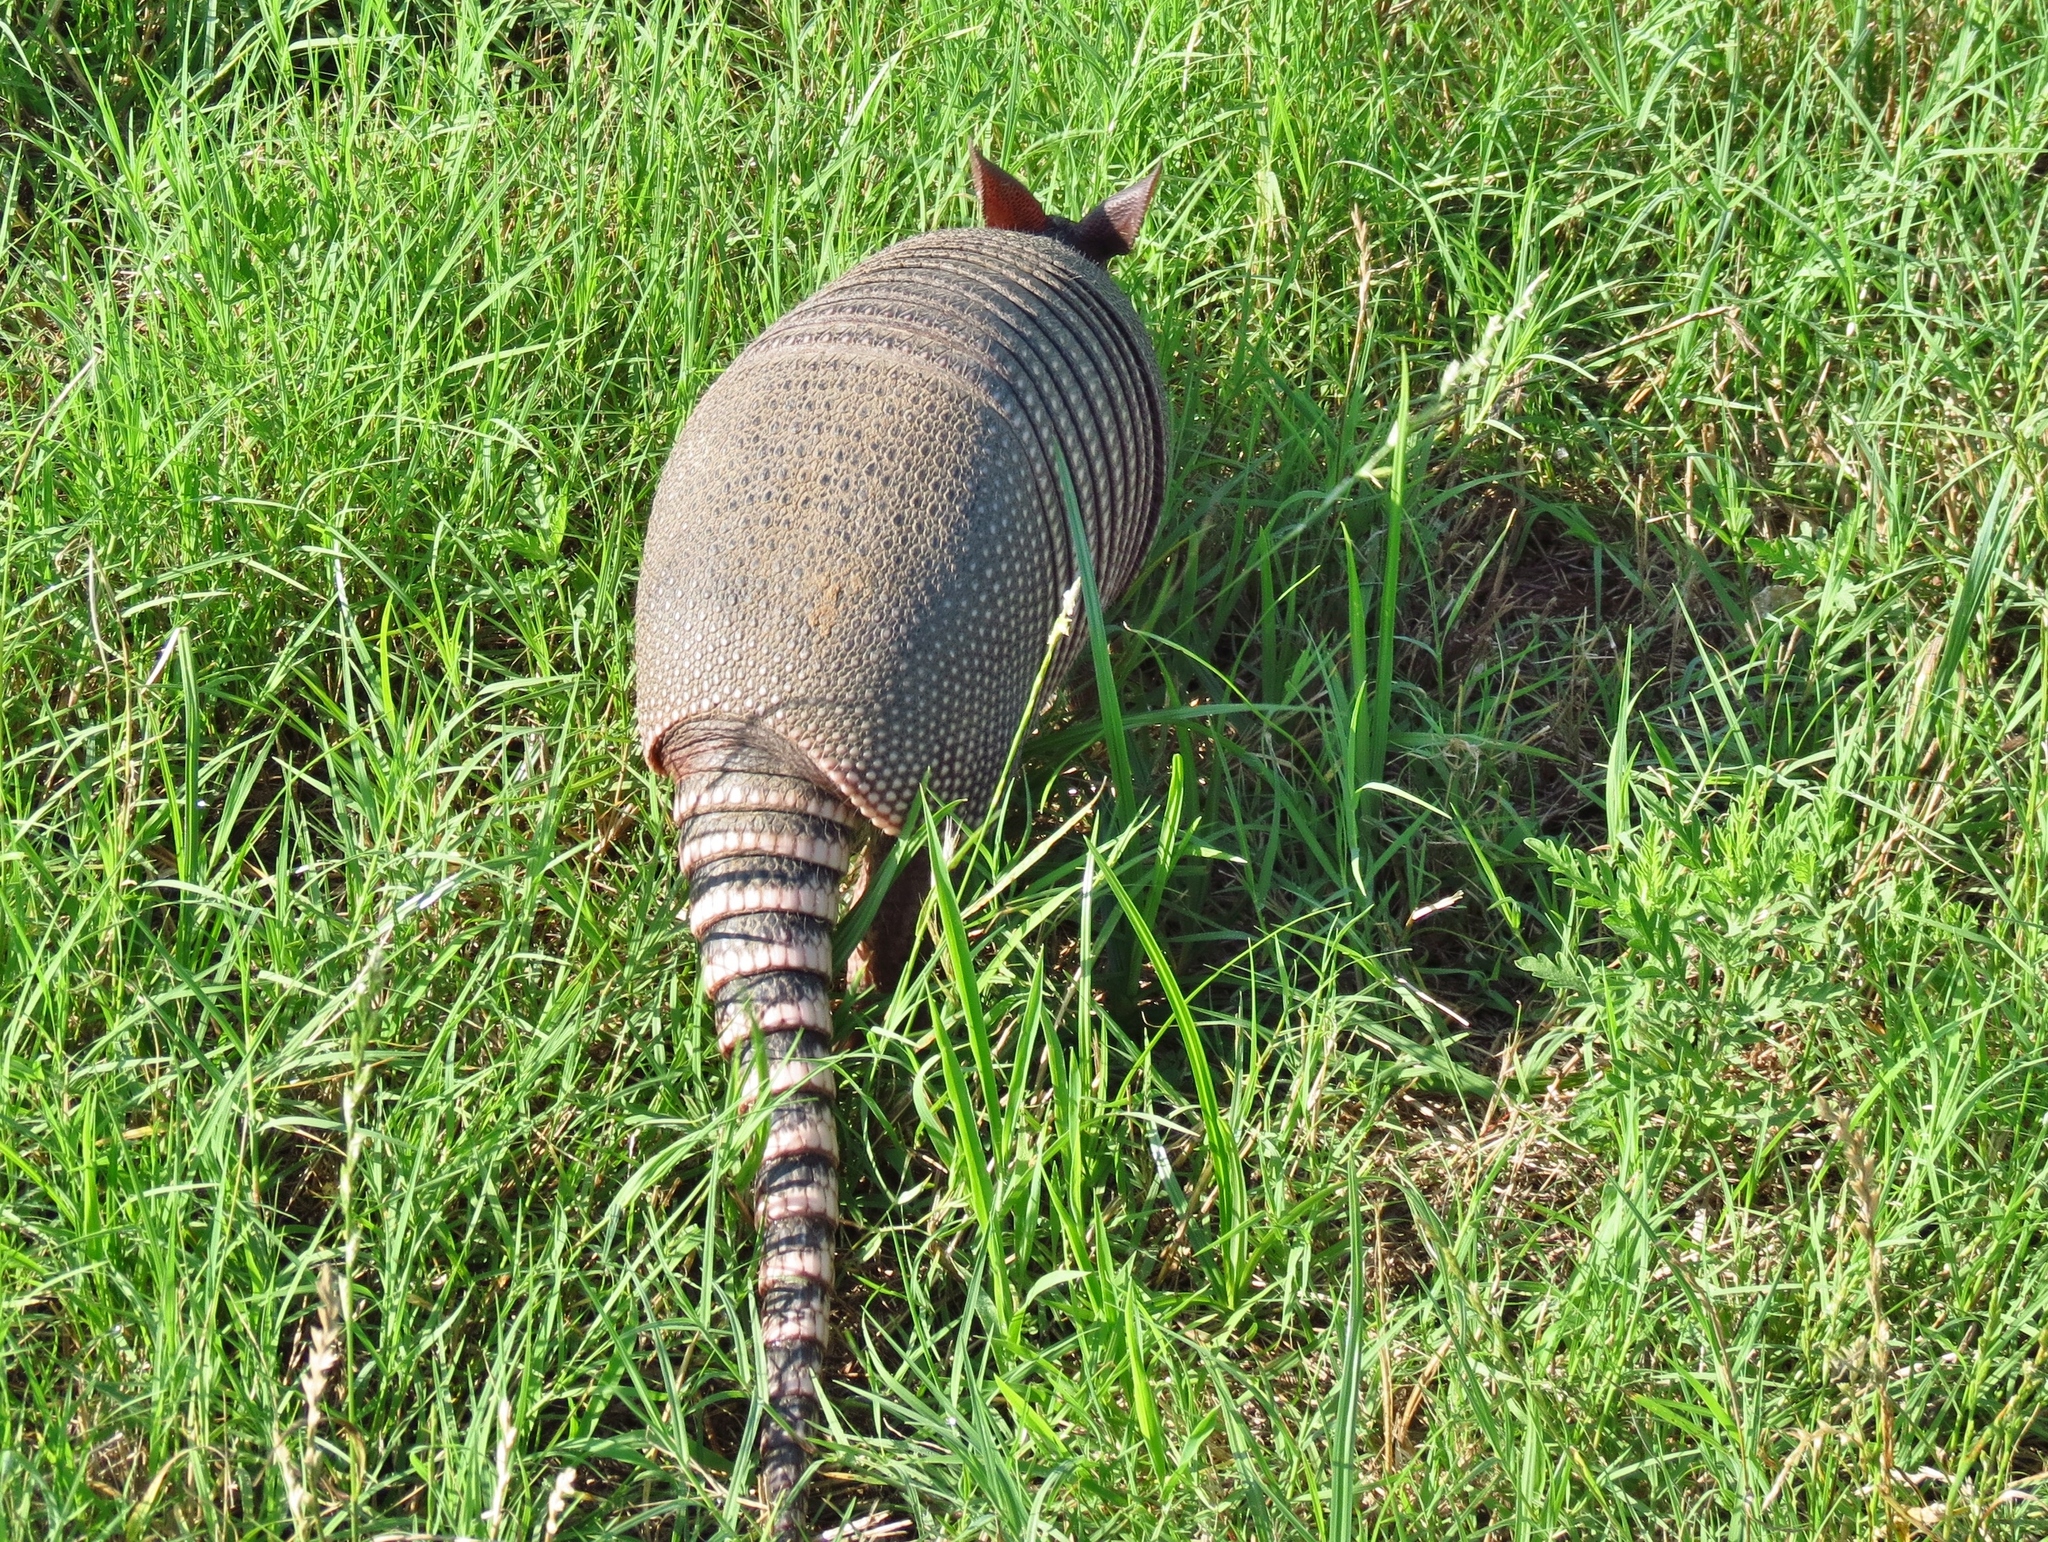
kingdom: Animalia
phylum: Chordata
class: Mammalia
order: Cingulata
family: Dasypodidae
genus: Dasypus
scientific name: Dasypus novemcinctus
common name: Nine-banded armadillo
